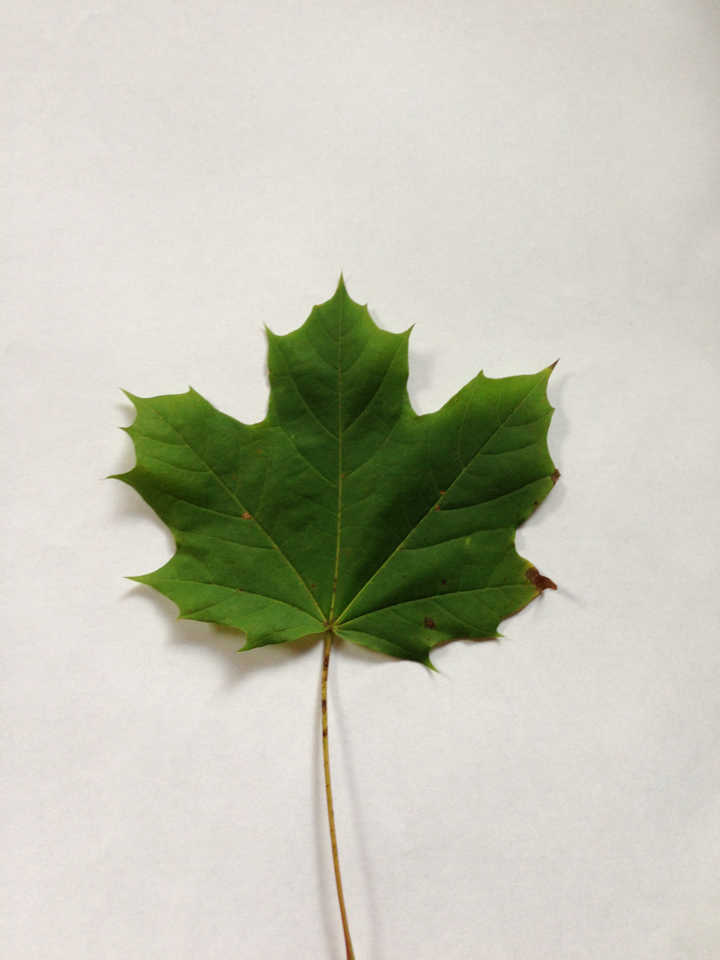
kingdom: Plantae
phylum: Tracheophyta
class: Magnoliopsida
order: Sapindales
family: Sapindaceae
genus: Acer
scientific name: Acer platanoides
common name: Norway maple
